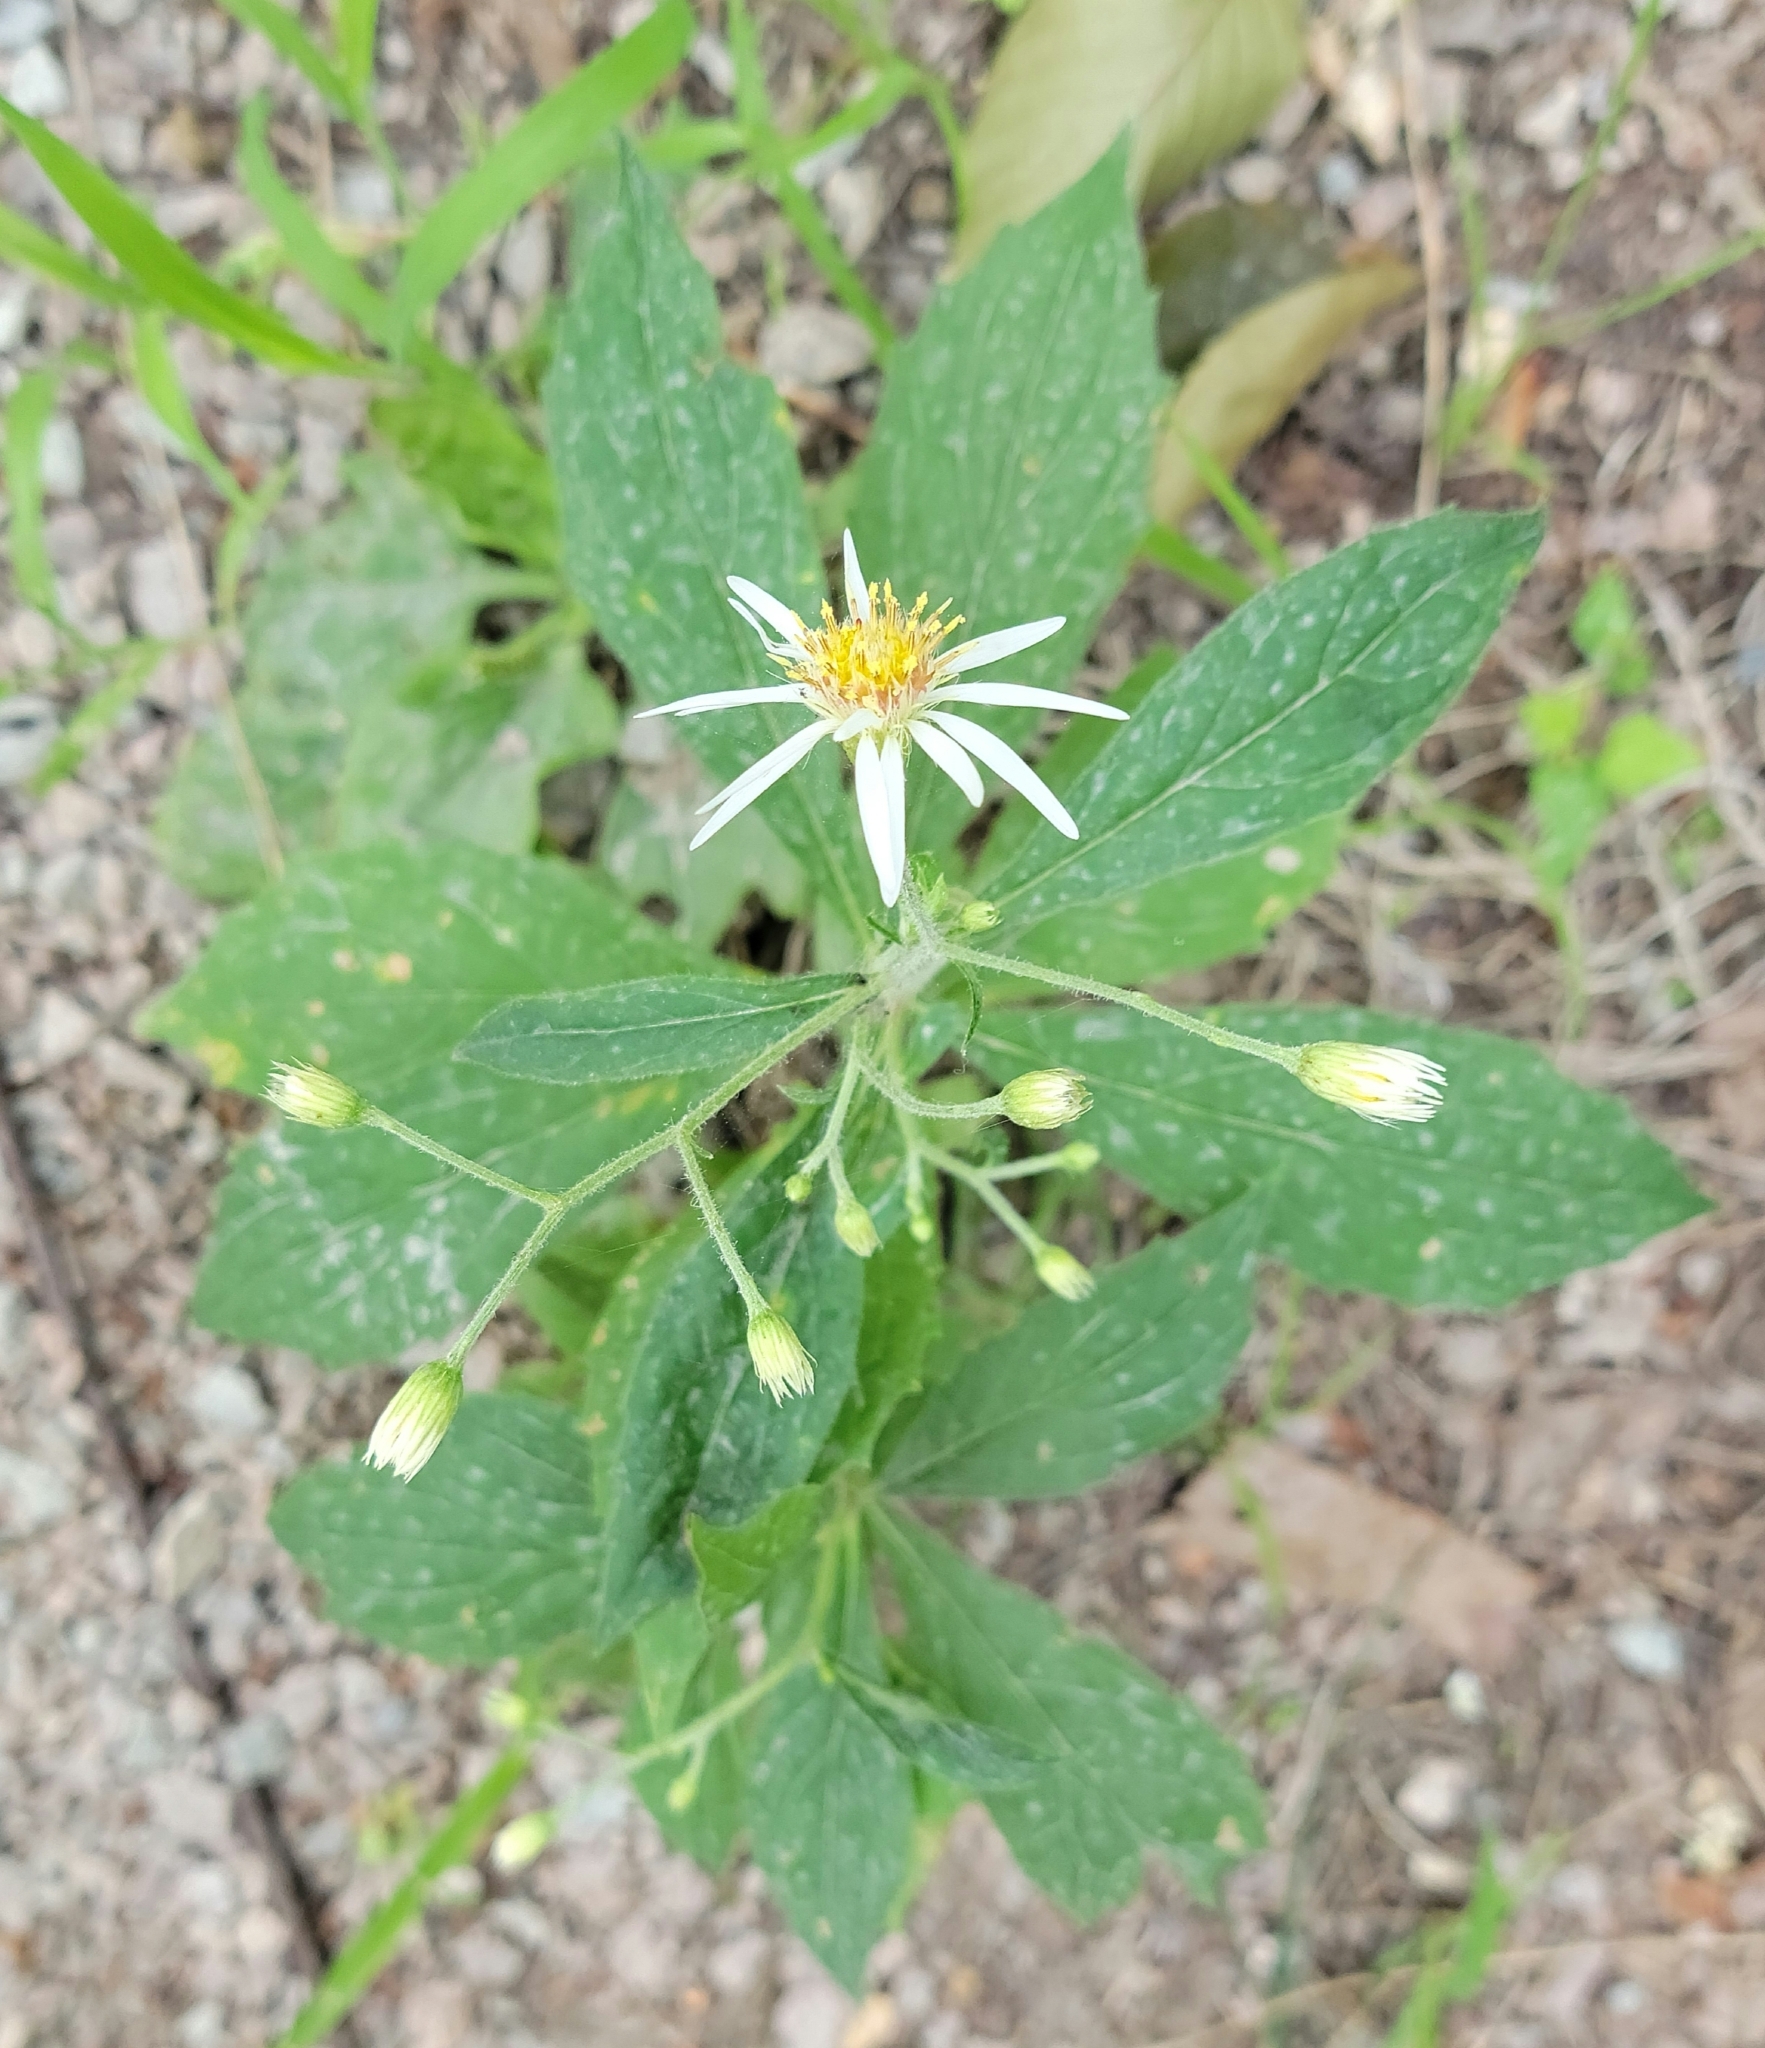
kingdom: Plantae
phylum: Tracheophyta
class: Magnoliopsida
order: Asterales
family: Asteraceae
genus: Oclemena
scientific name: Oclemena acuminata
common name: Mountain aster
